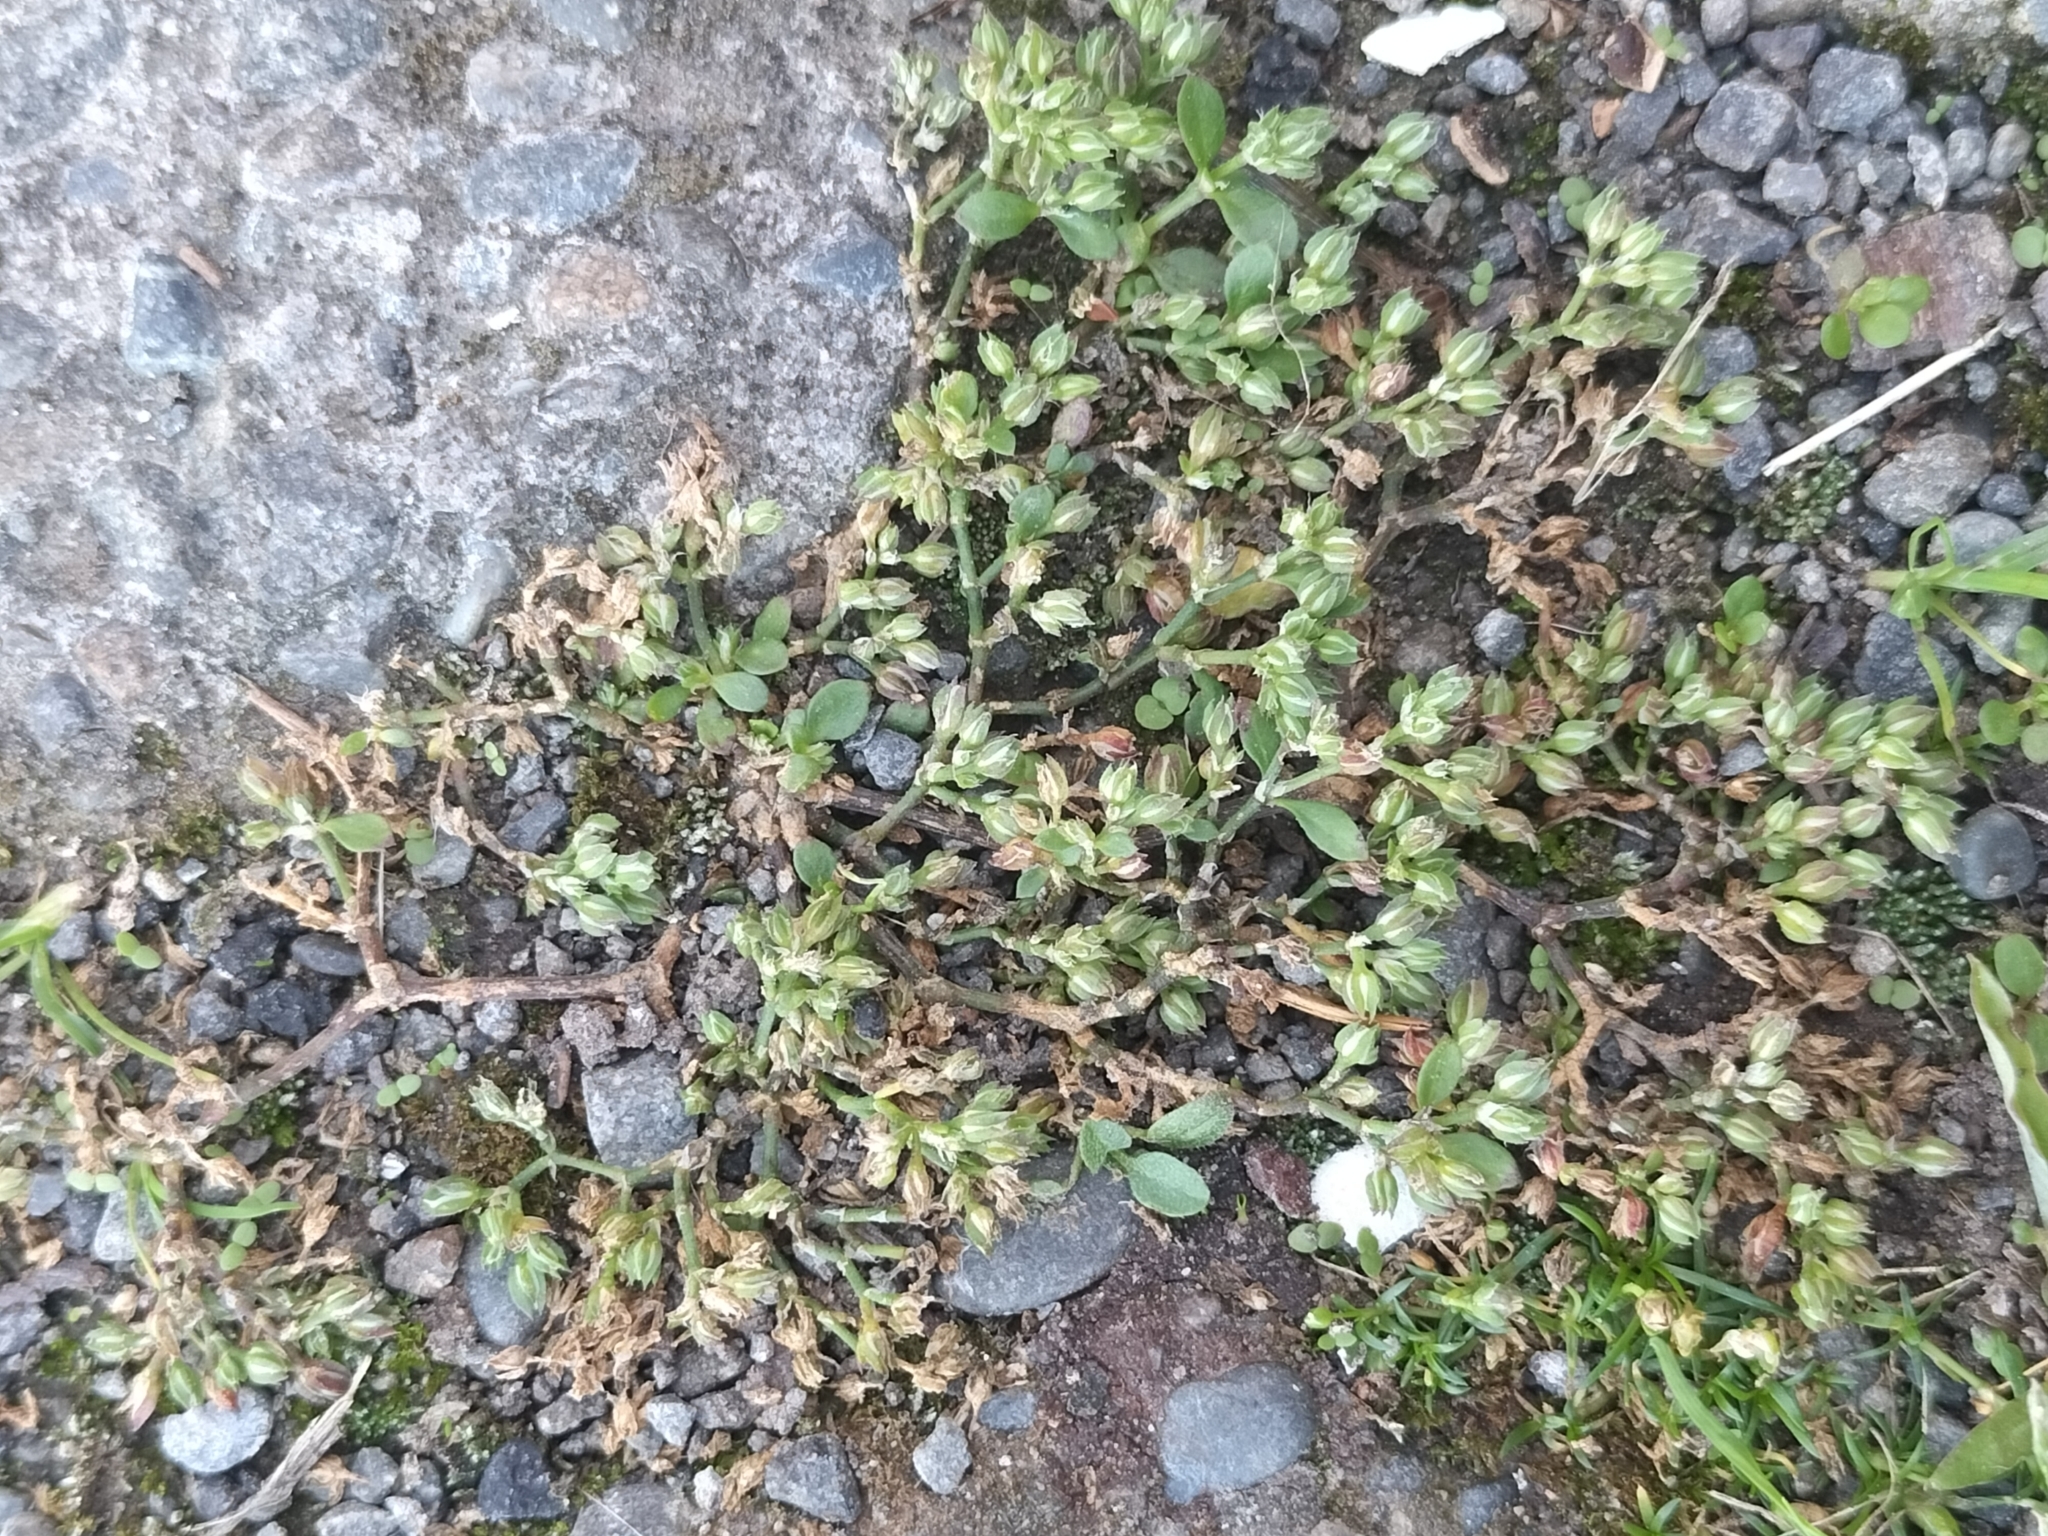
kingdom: Plantae
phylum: Tracheophyta
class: Magnoliopsida
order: Caryophyllales
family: Caryophyllaceae
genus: Polycarpon
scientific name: Polycarpon tetraphyllum
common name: Four-leaved all-seed
